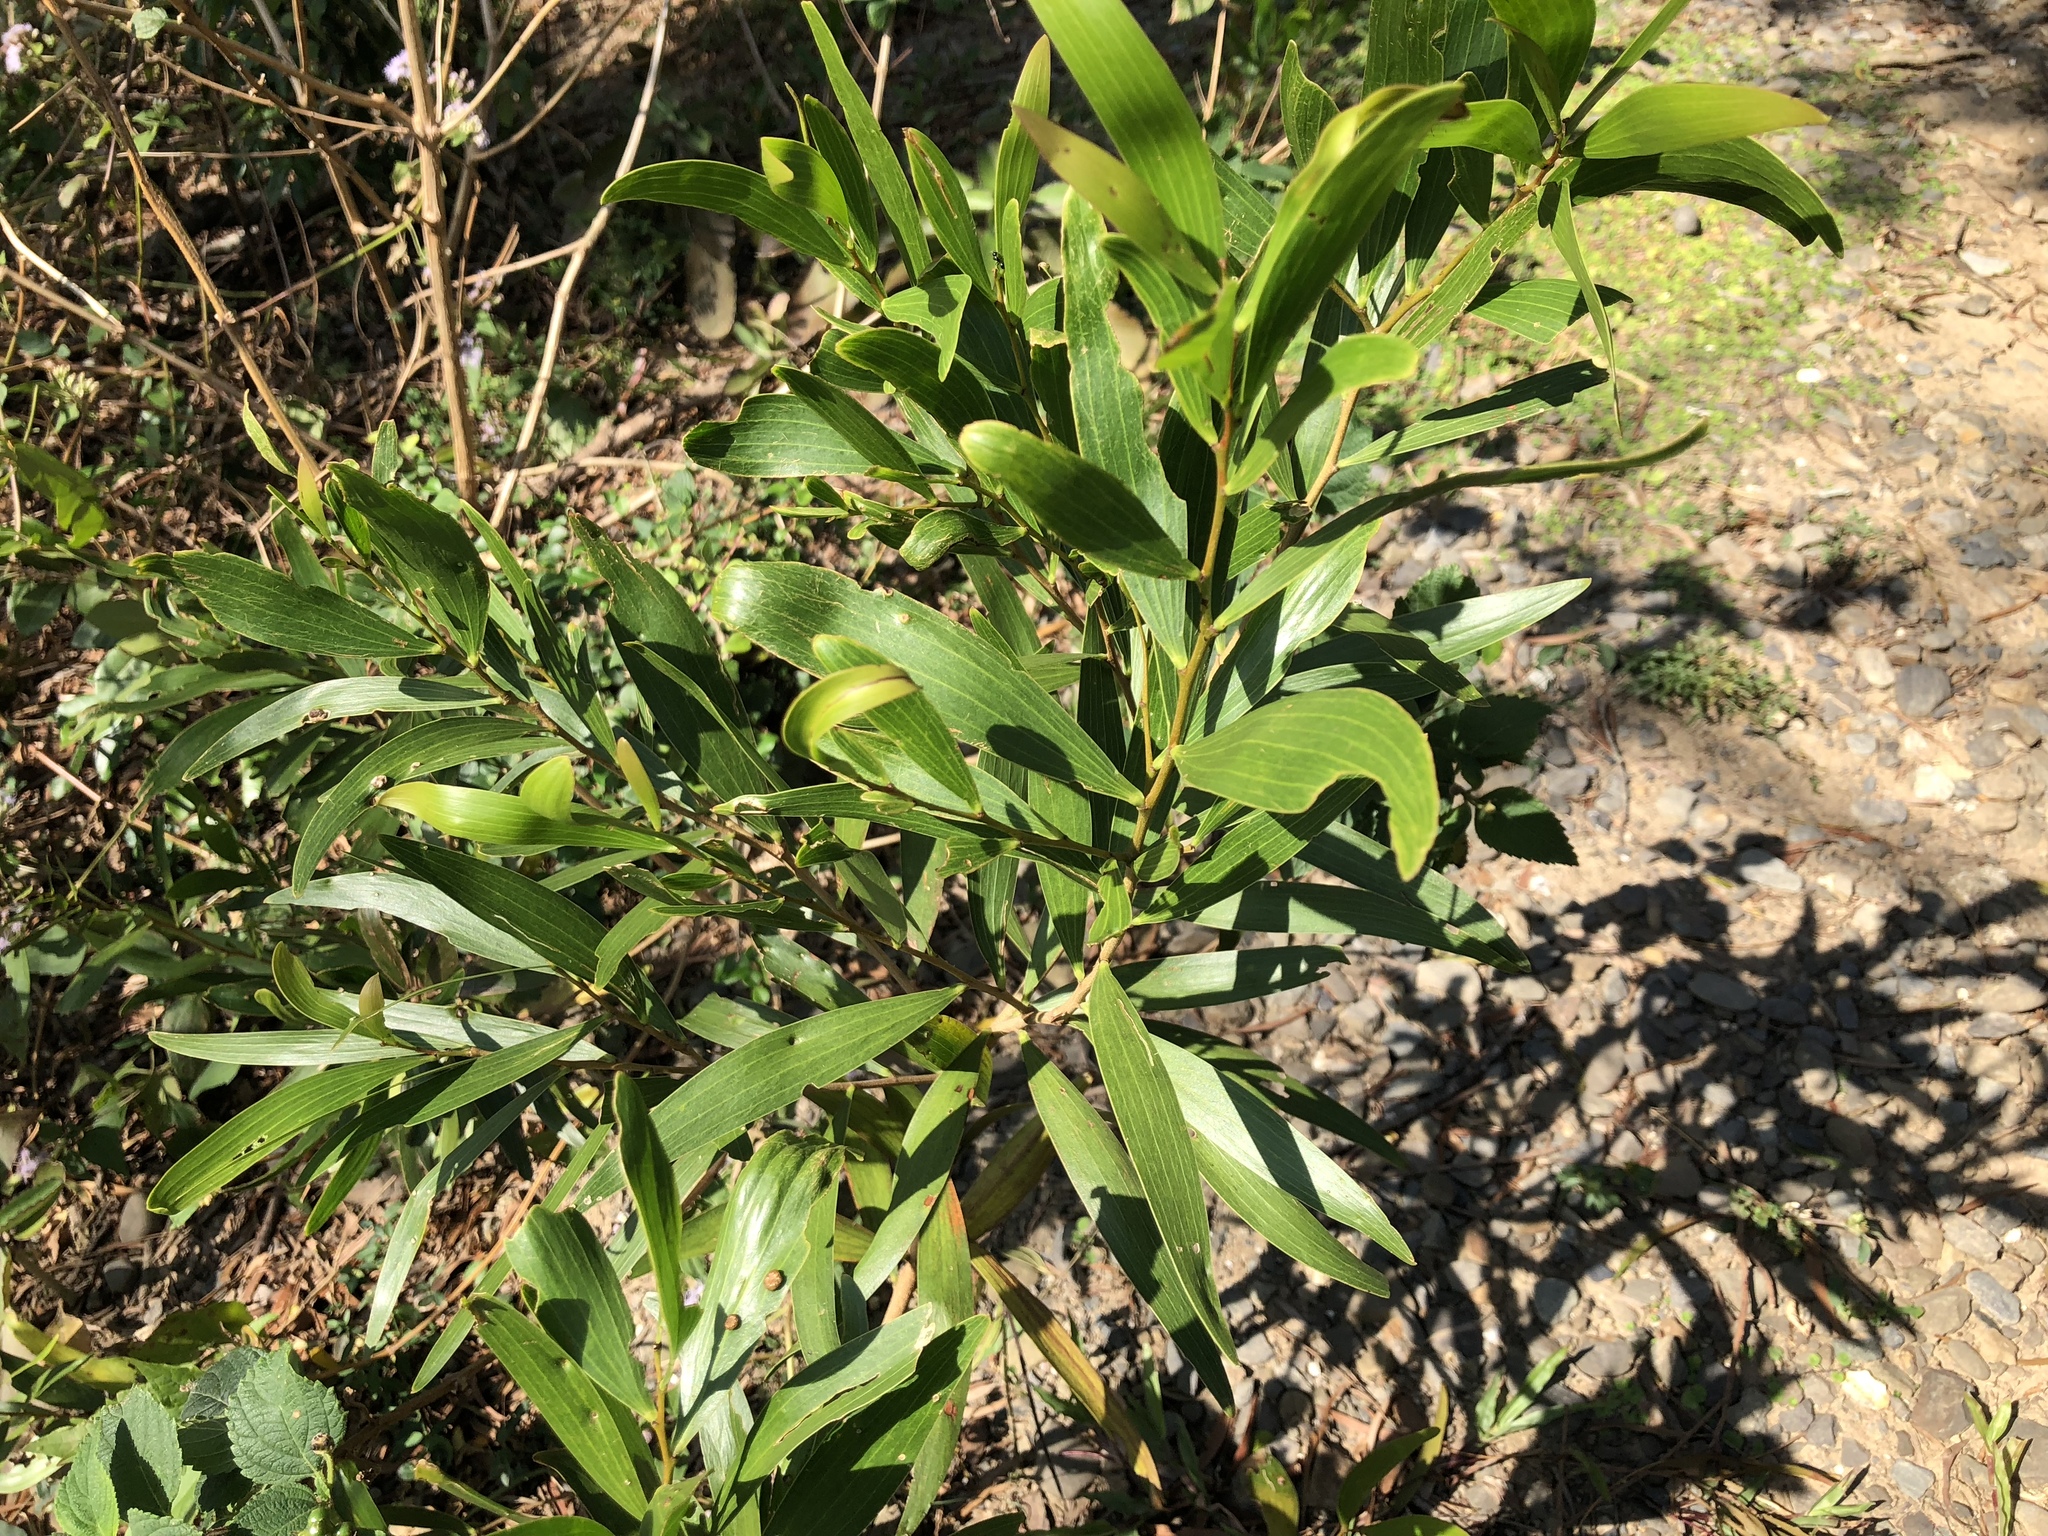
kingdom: Plantae
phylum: Tracheophyta
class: Magnoliopsida
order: Fabales
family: Fabaceae
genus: Acacia
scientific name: Acacia confusa
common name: Formosan koa
